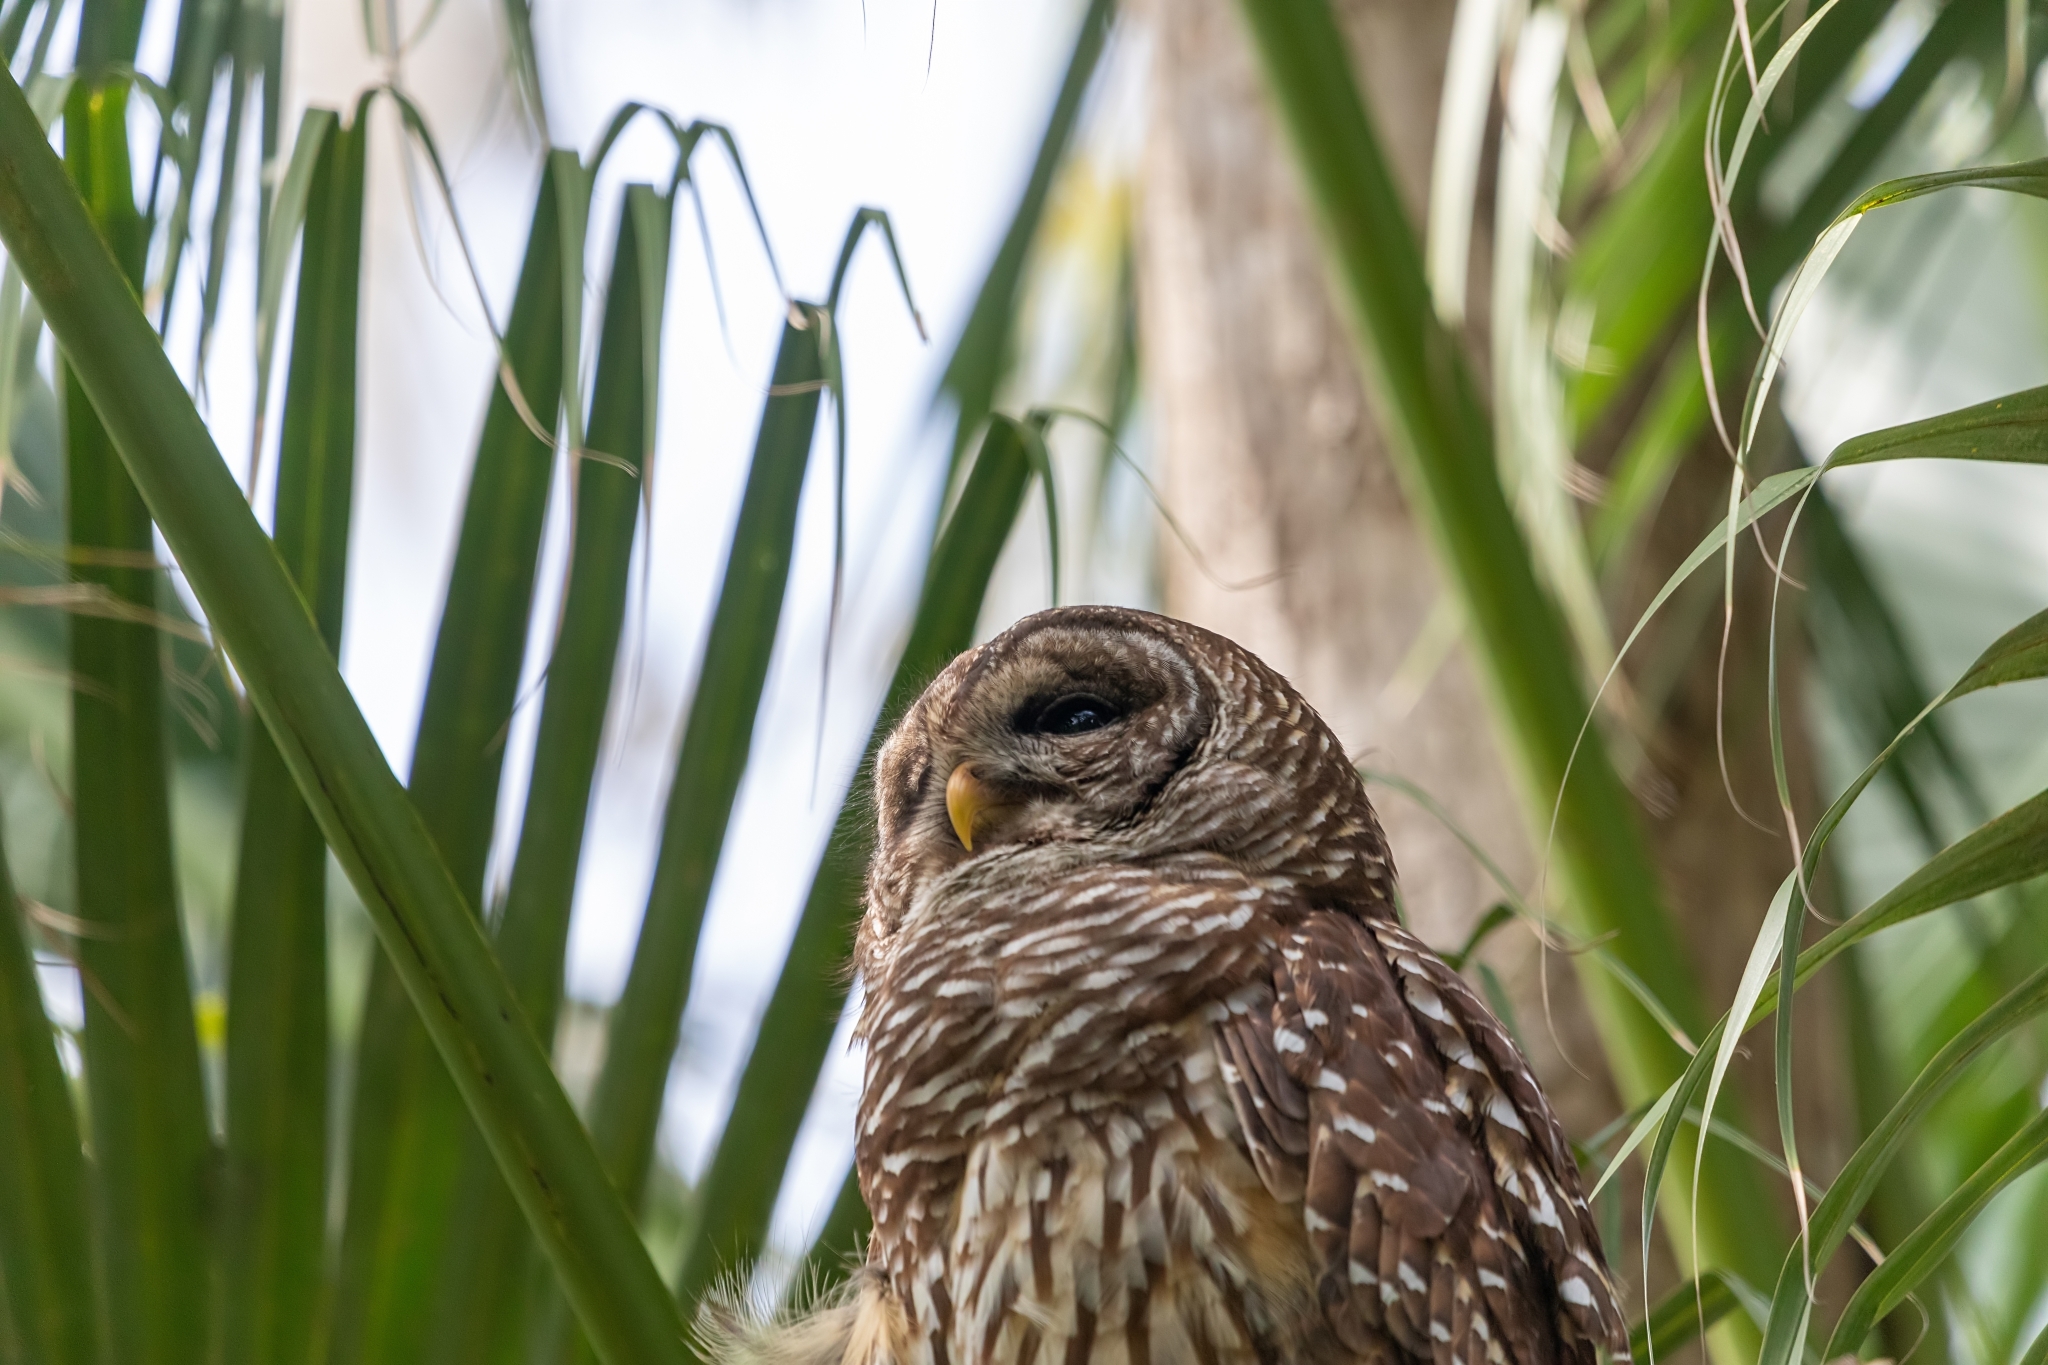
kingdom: Animalia
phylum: Chordata
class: Aves
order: Strigiformes
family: Strigidae
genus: Strix
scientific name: Strix varia
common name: Barred owl
